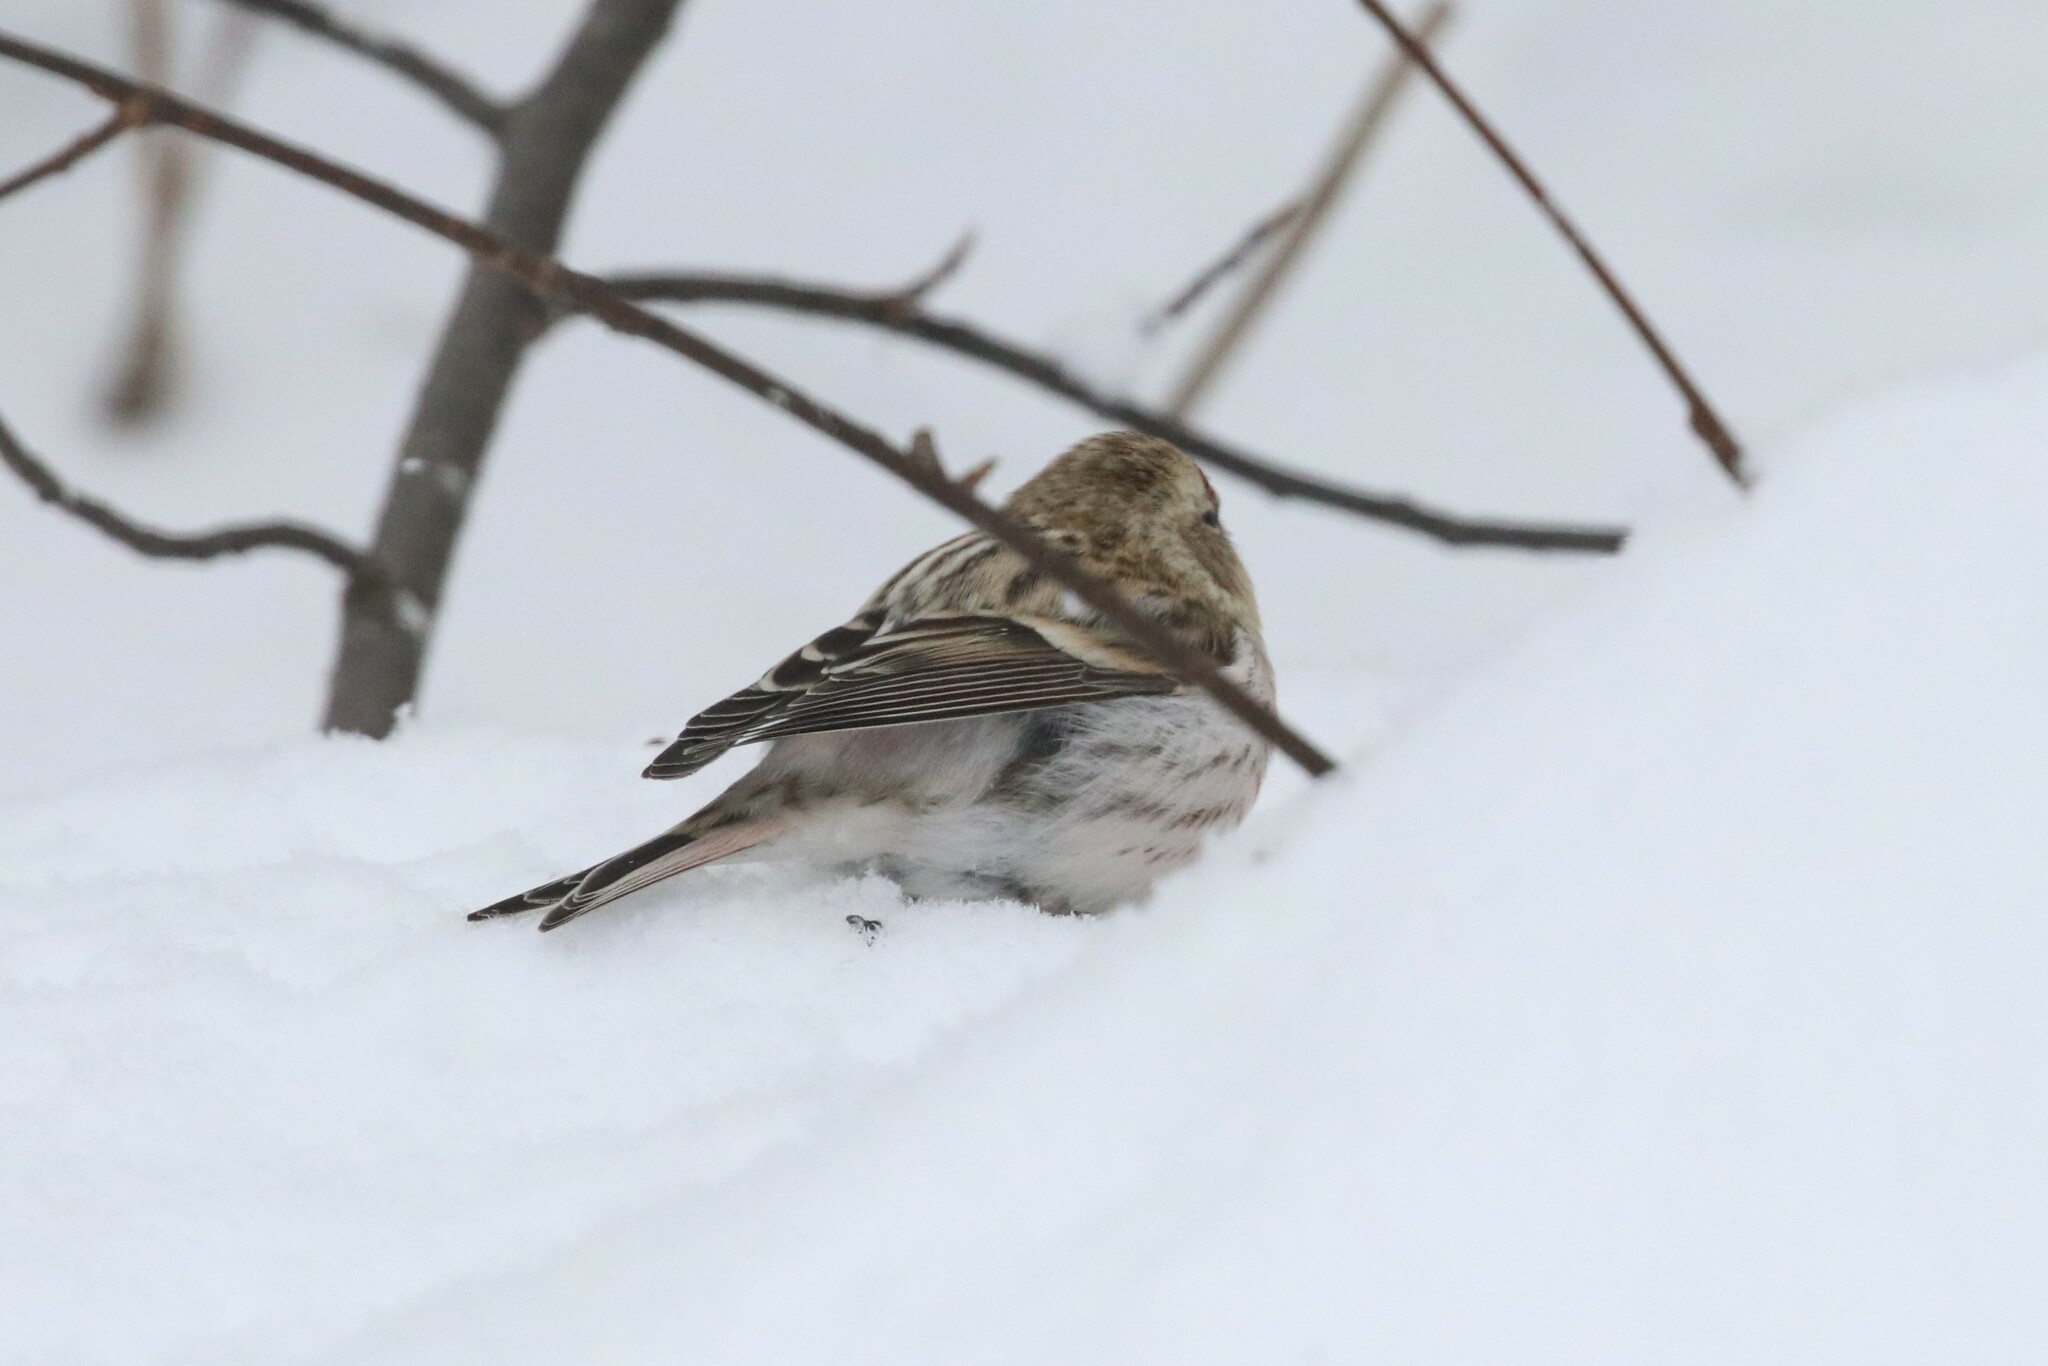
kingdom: Animalia
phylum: Chordata
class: Aves
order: Passeriformes
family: Fringillidae
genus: Acanthis
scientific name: Acanthis hornemanni
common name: Arctic redpoll
